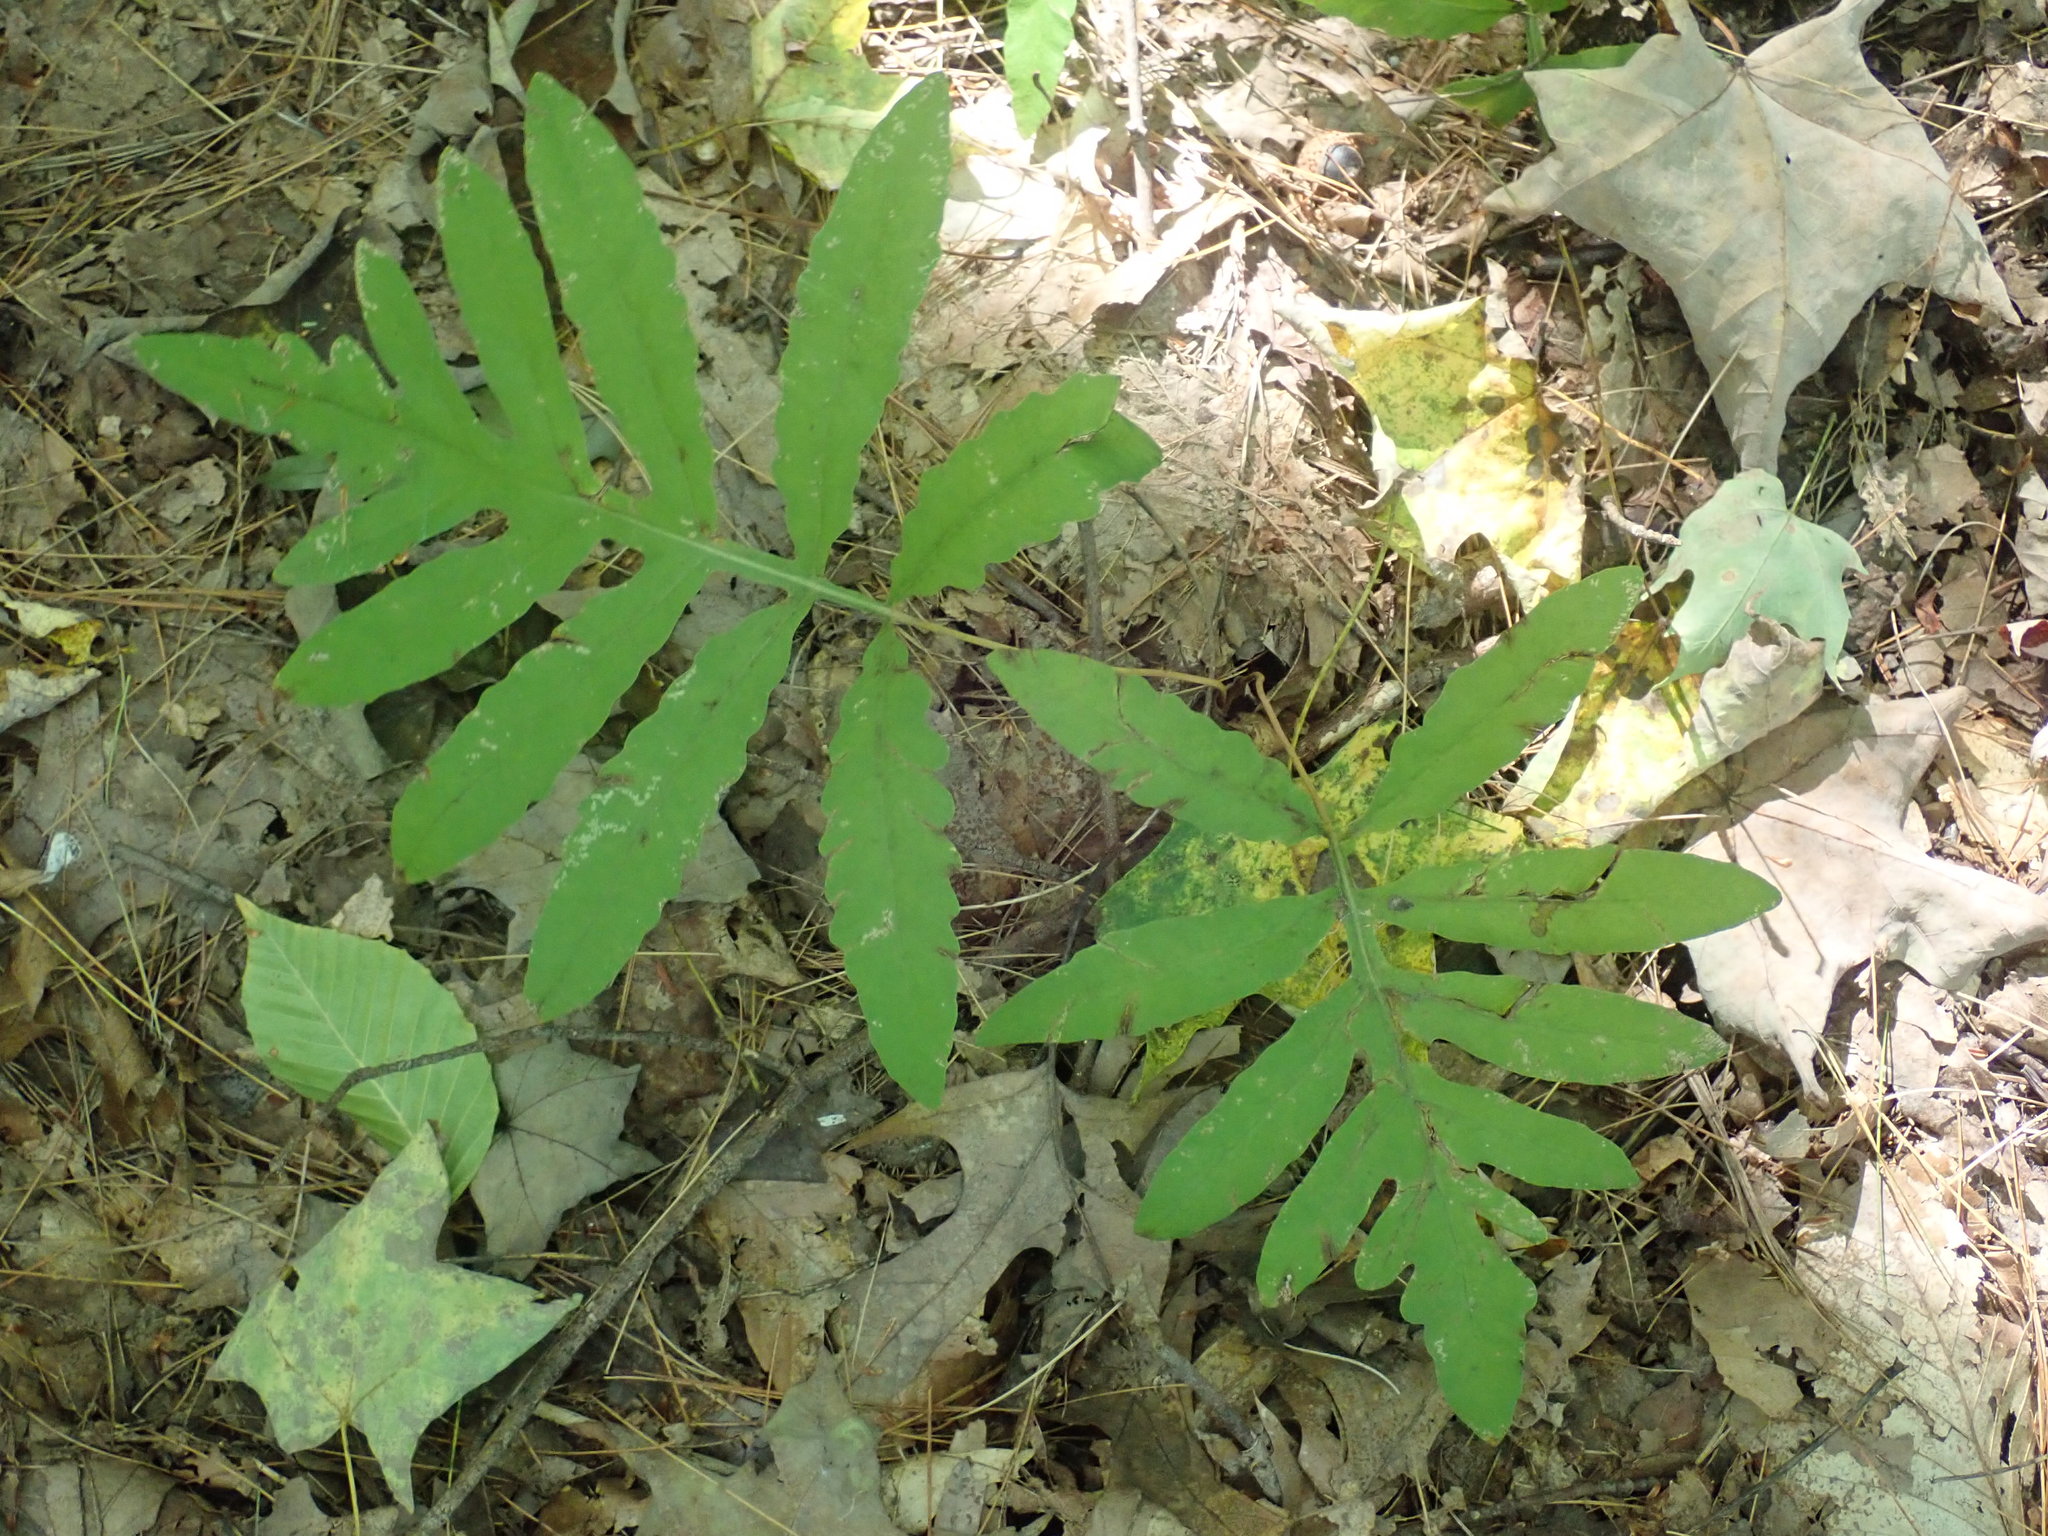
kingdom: Plantae
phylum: Tracheophyta
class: Polypodiopsida
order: Polypodiales
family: Onocleaceae
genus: Onoclea
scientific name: Onoclea sensibilis
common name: Sensitive fern
